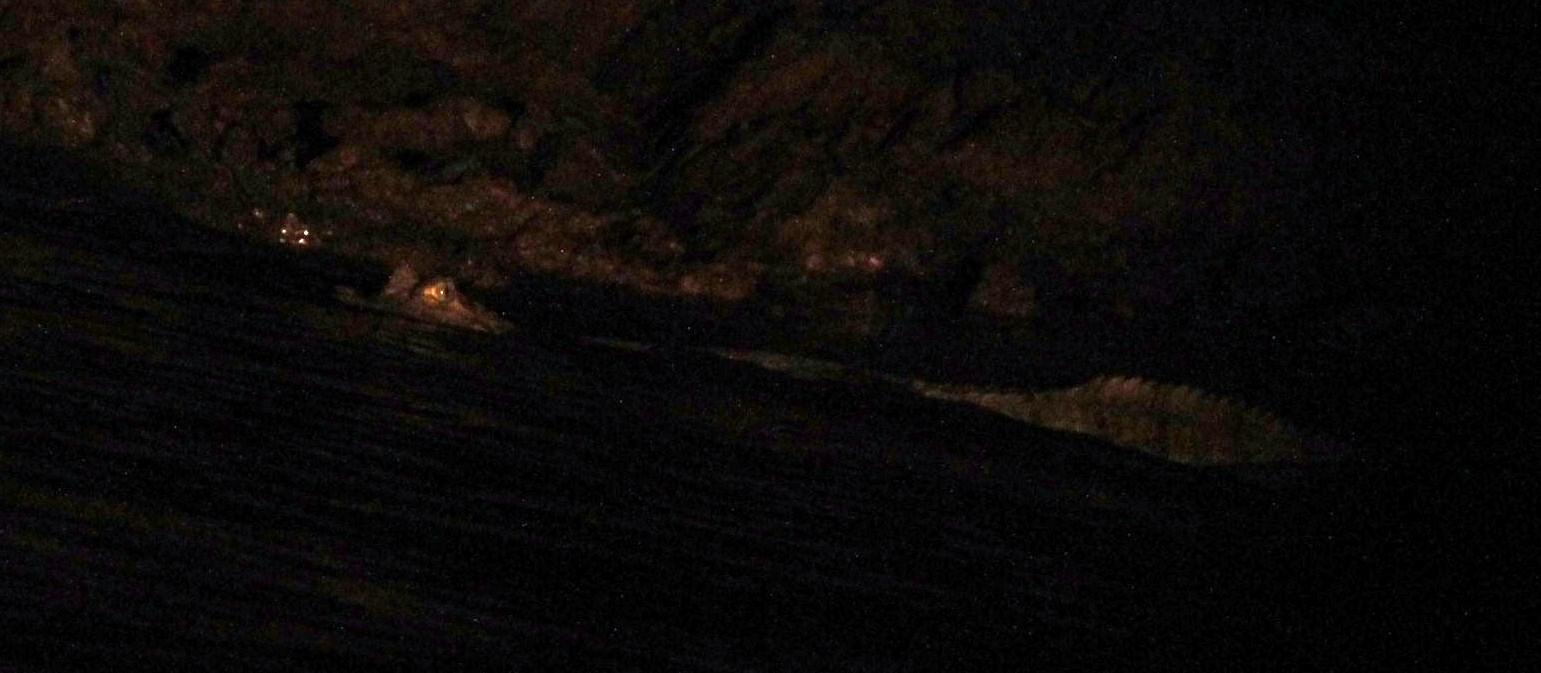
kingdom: Animalia
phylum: Chordata
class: Crocodylia
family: Alligatoridae
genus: Caiman
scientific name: Caiman crocodilus
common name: Common caiman
